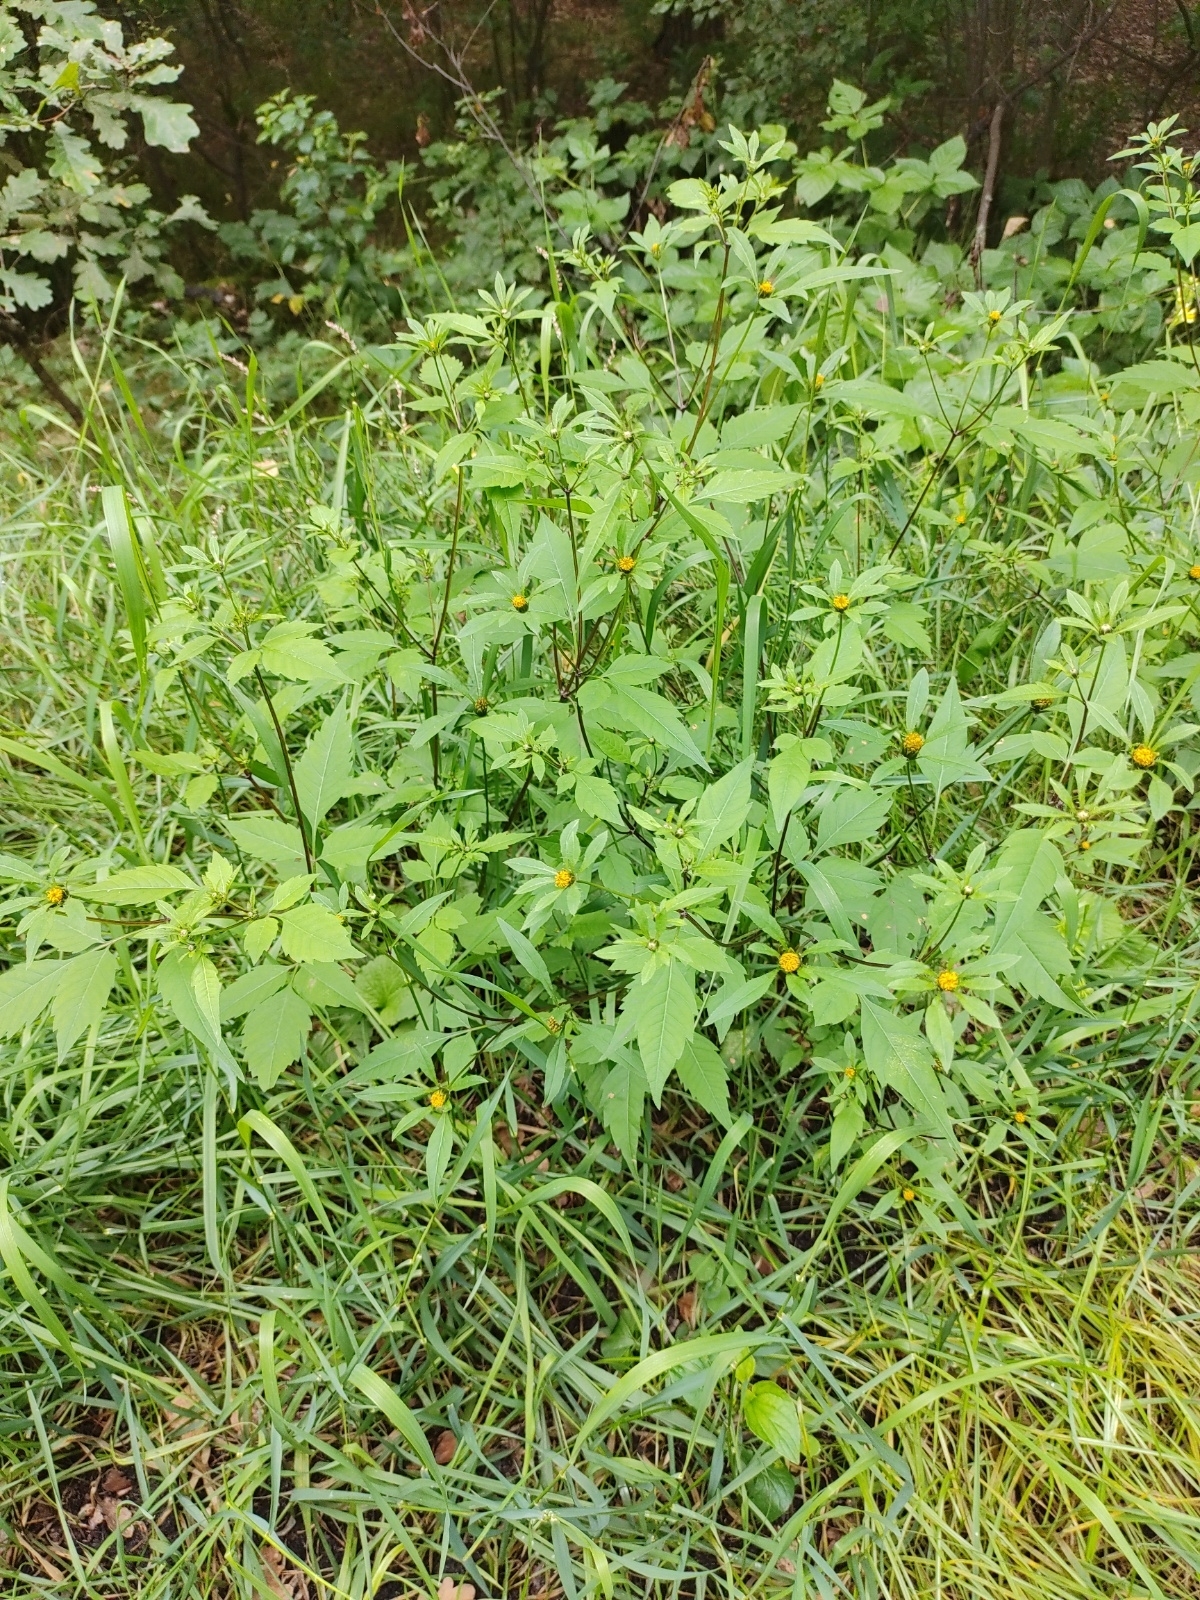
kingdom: Plantae
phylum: Tracheophyta
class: Magnoliopsida
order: Asterales
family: Asteraceae
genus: Bidens
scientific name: Bidens frondosa
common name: Beggarticks
